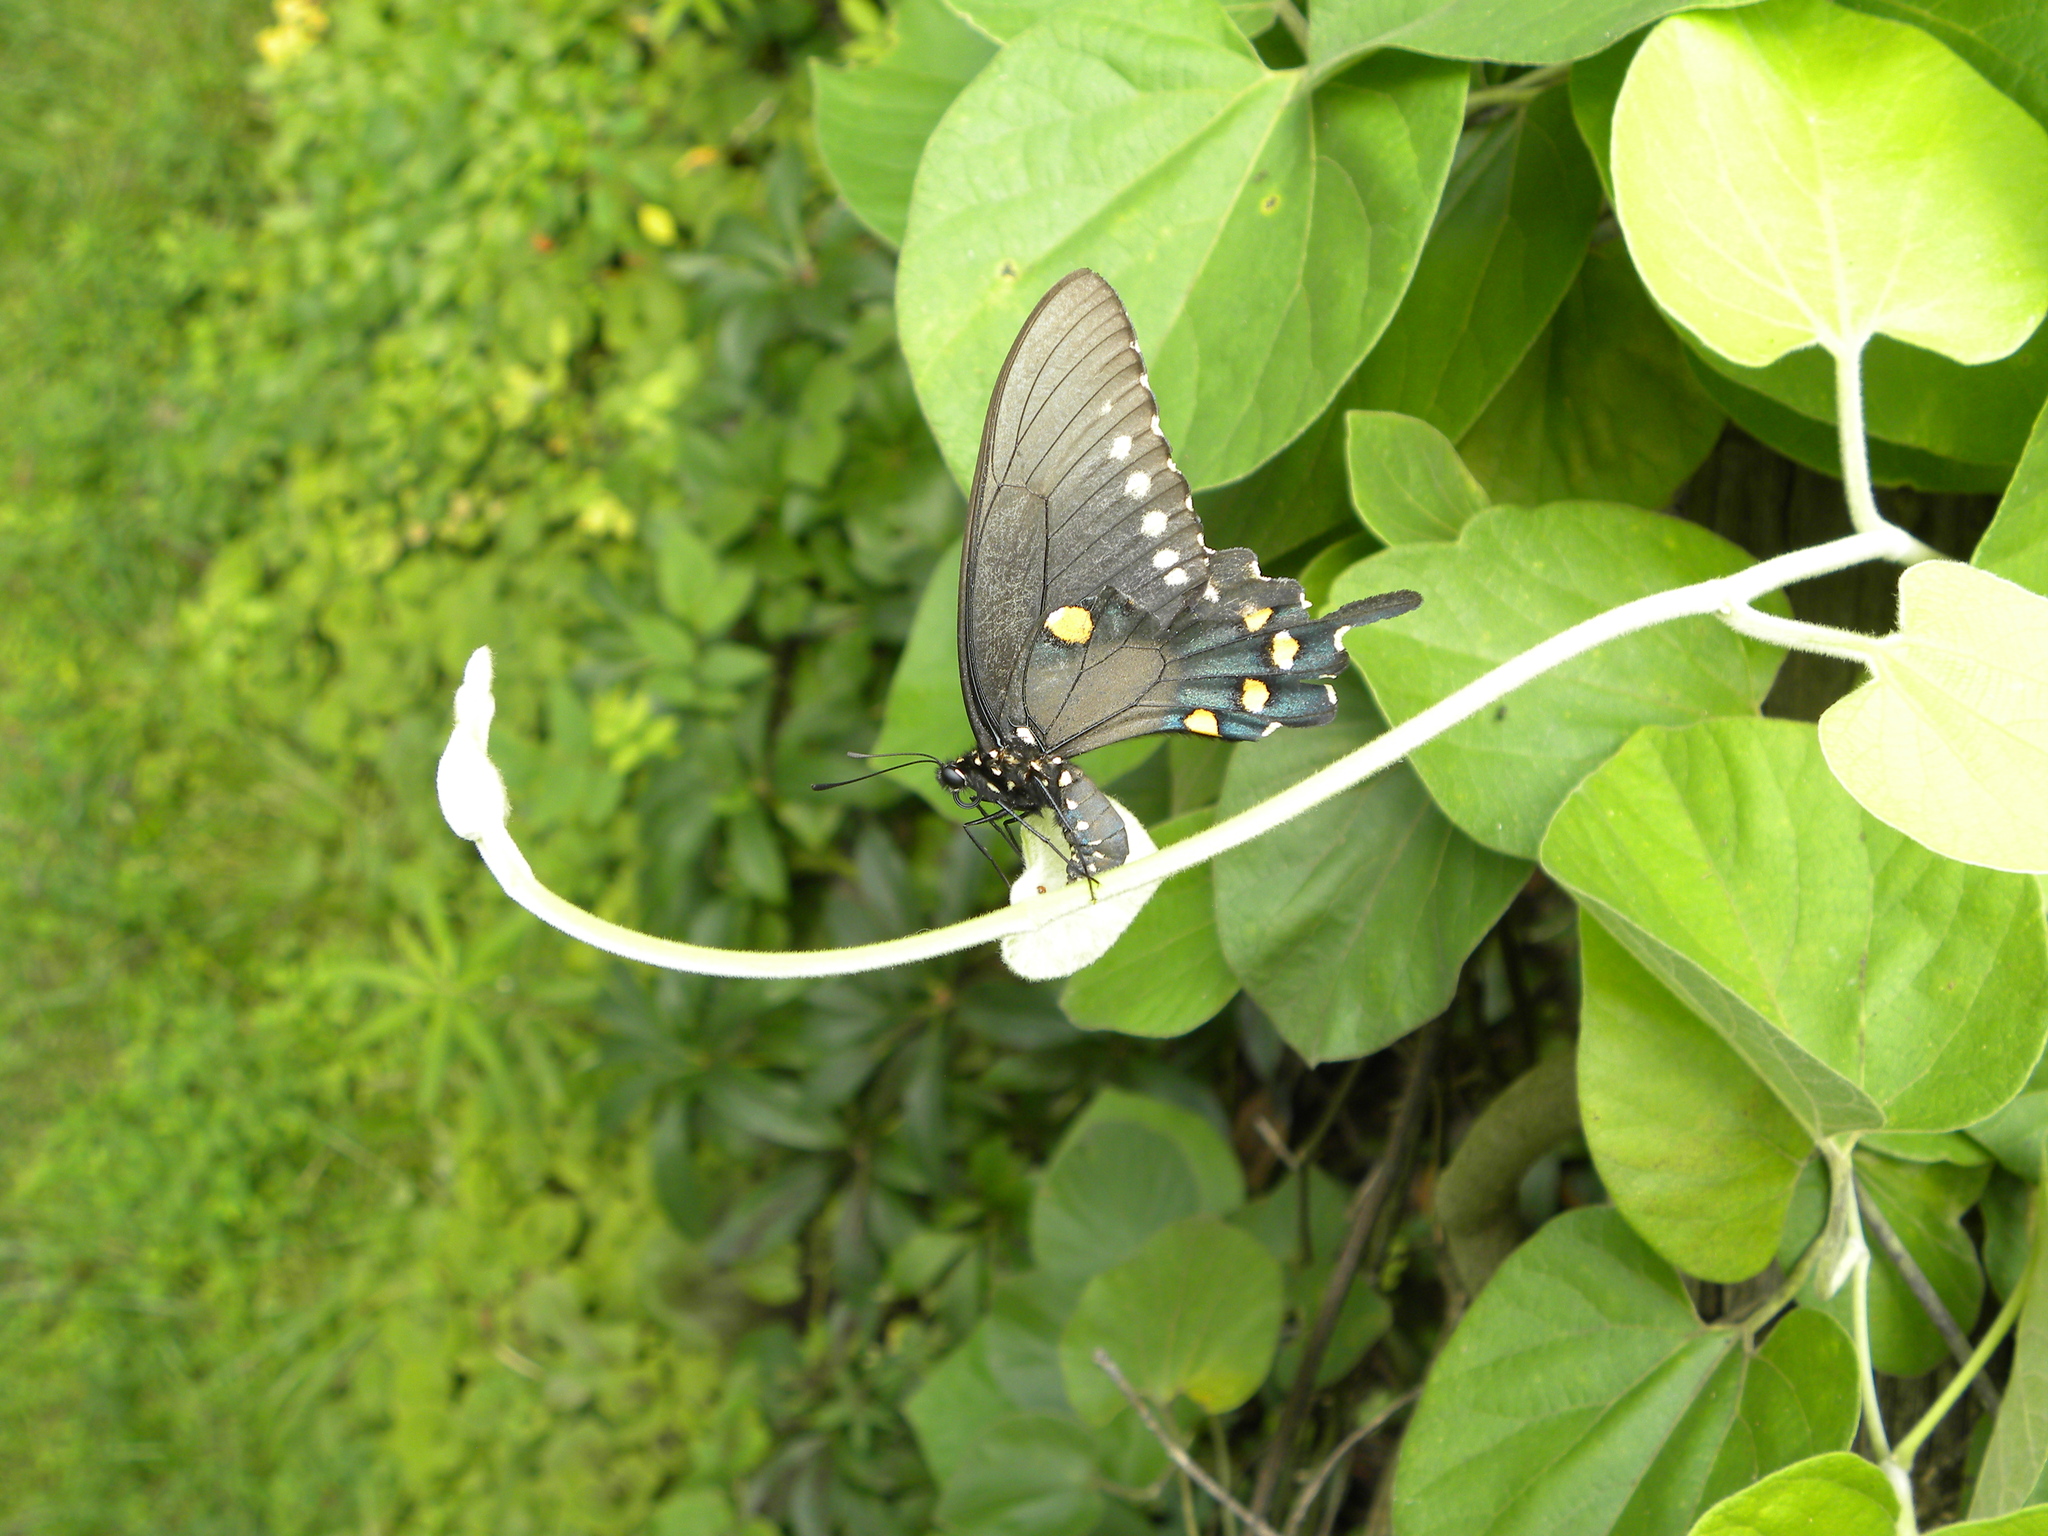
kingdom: Animalia
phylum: Arthropoda
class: Insecta
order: Lepidoptera
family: Papilionidae
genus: Battus
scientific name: Battus philenor
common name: Pipevine swallowtail
